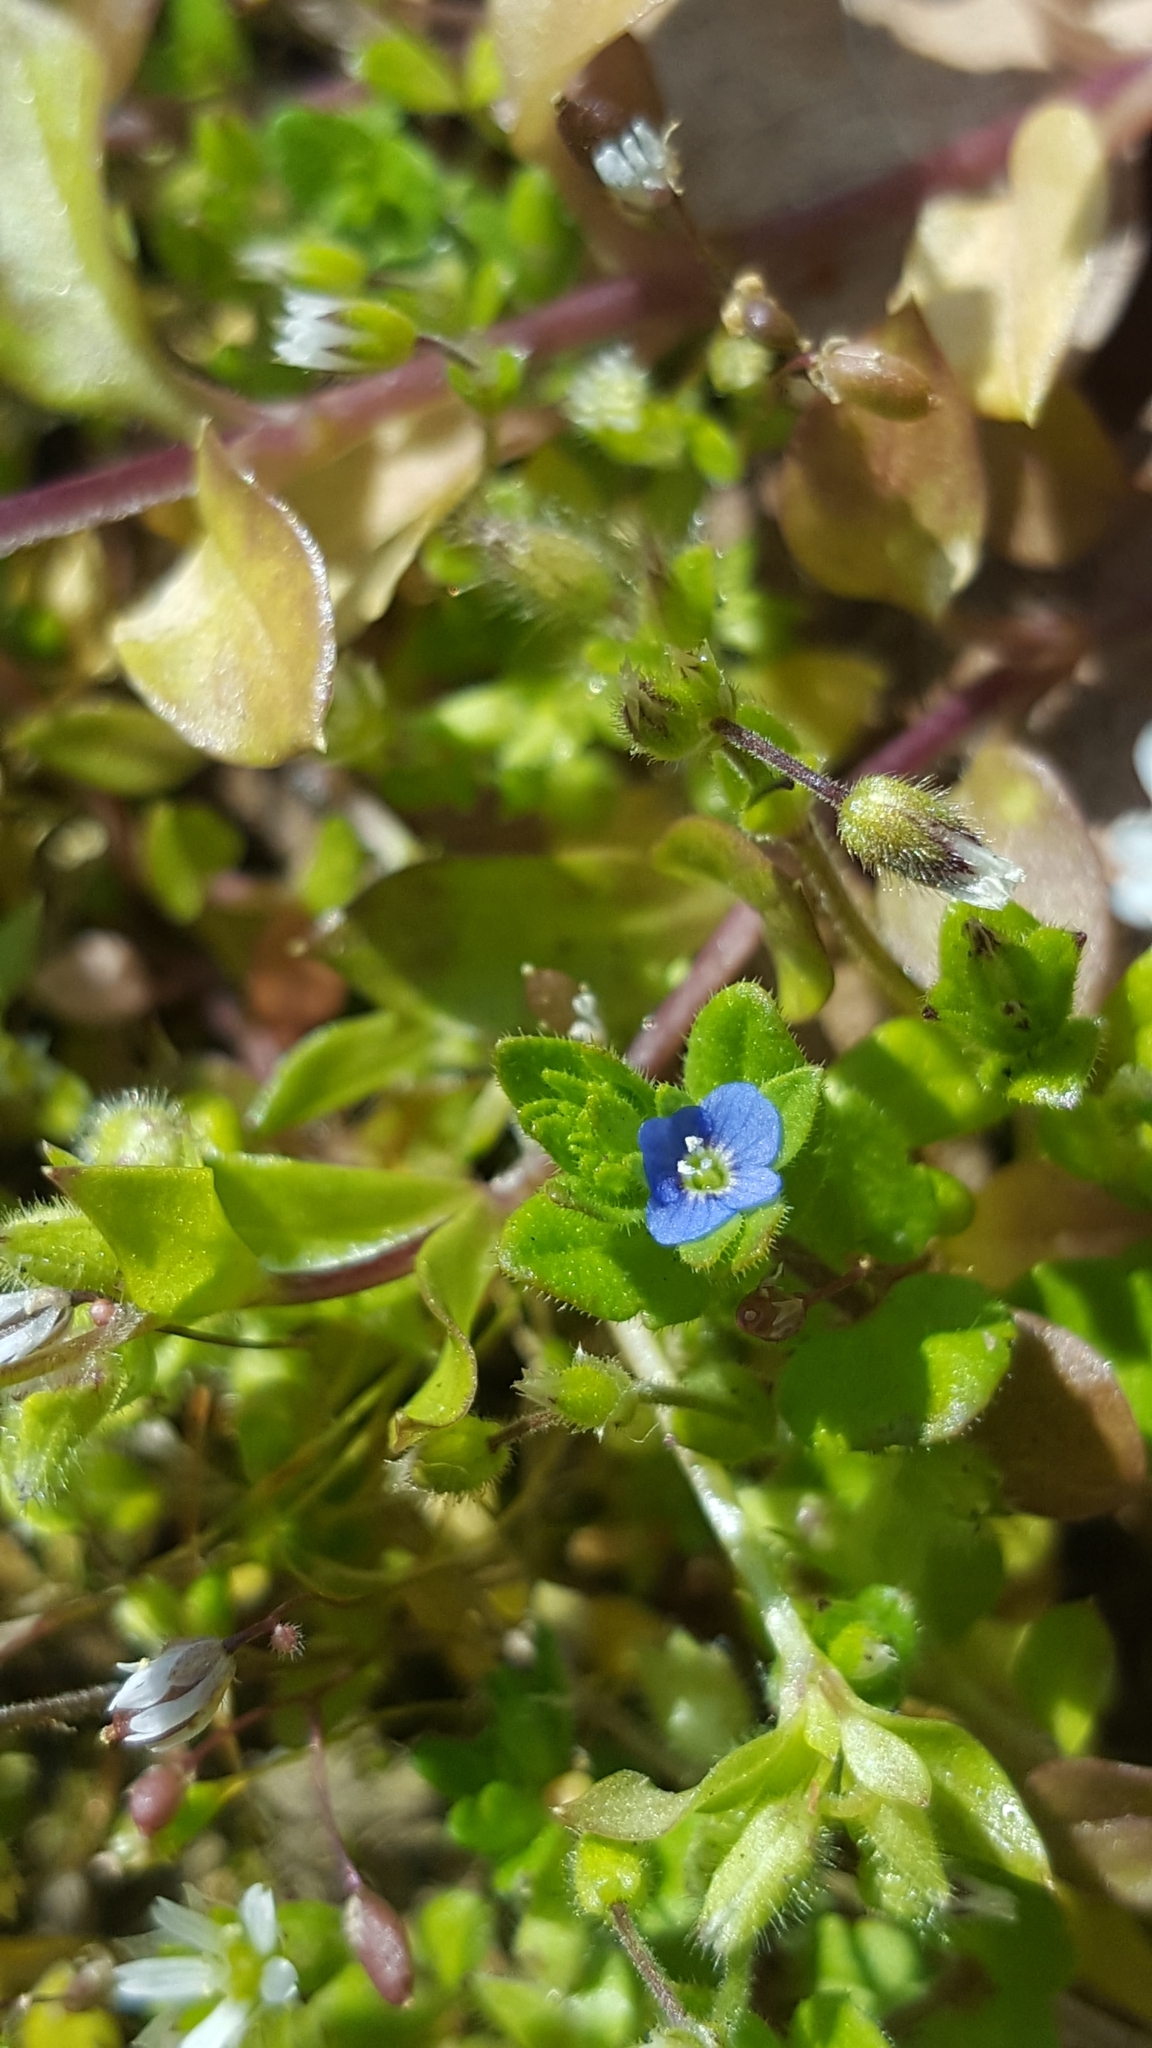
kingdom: Plantae
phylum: Tracheophyta
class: Magnoliopsida
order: Lamiales
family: Plantaginaceae
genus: Veronica
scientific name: Veronica arvensis
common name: Corn speedwell
